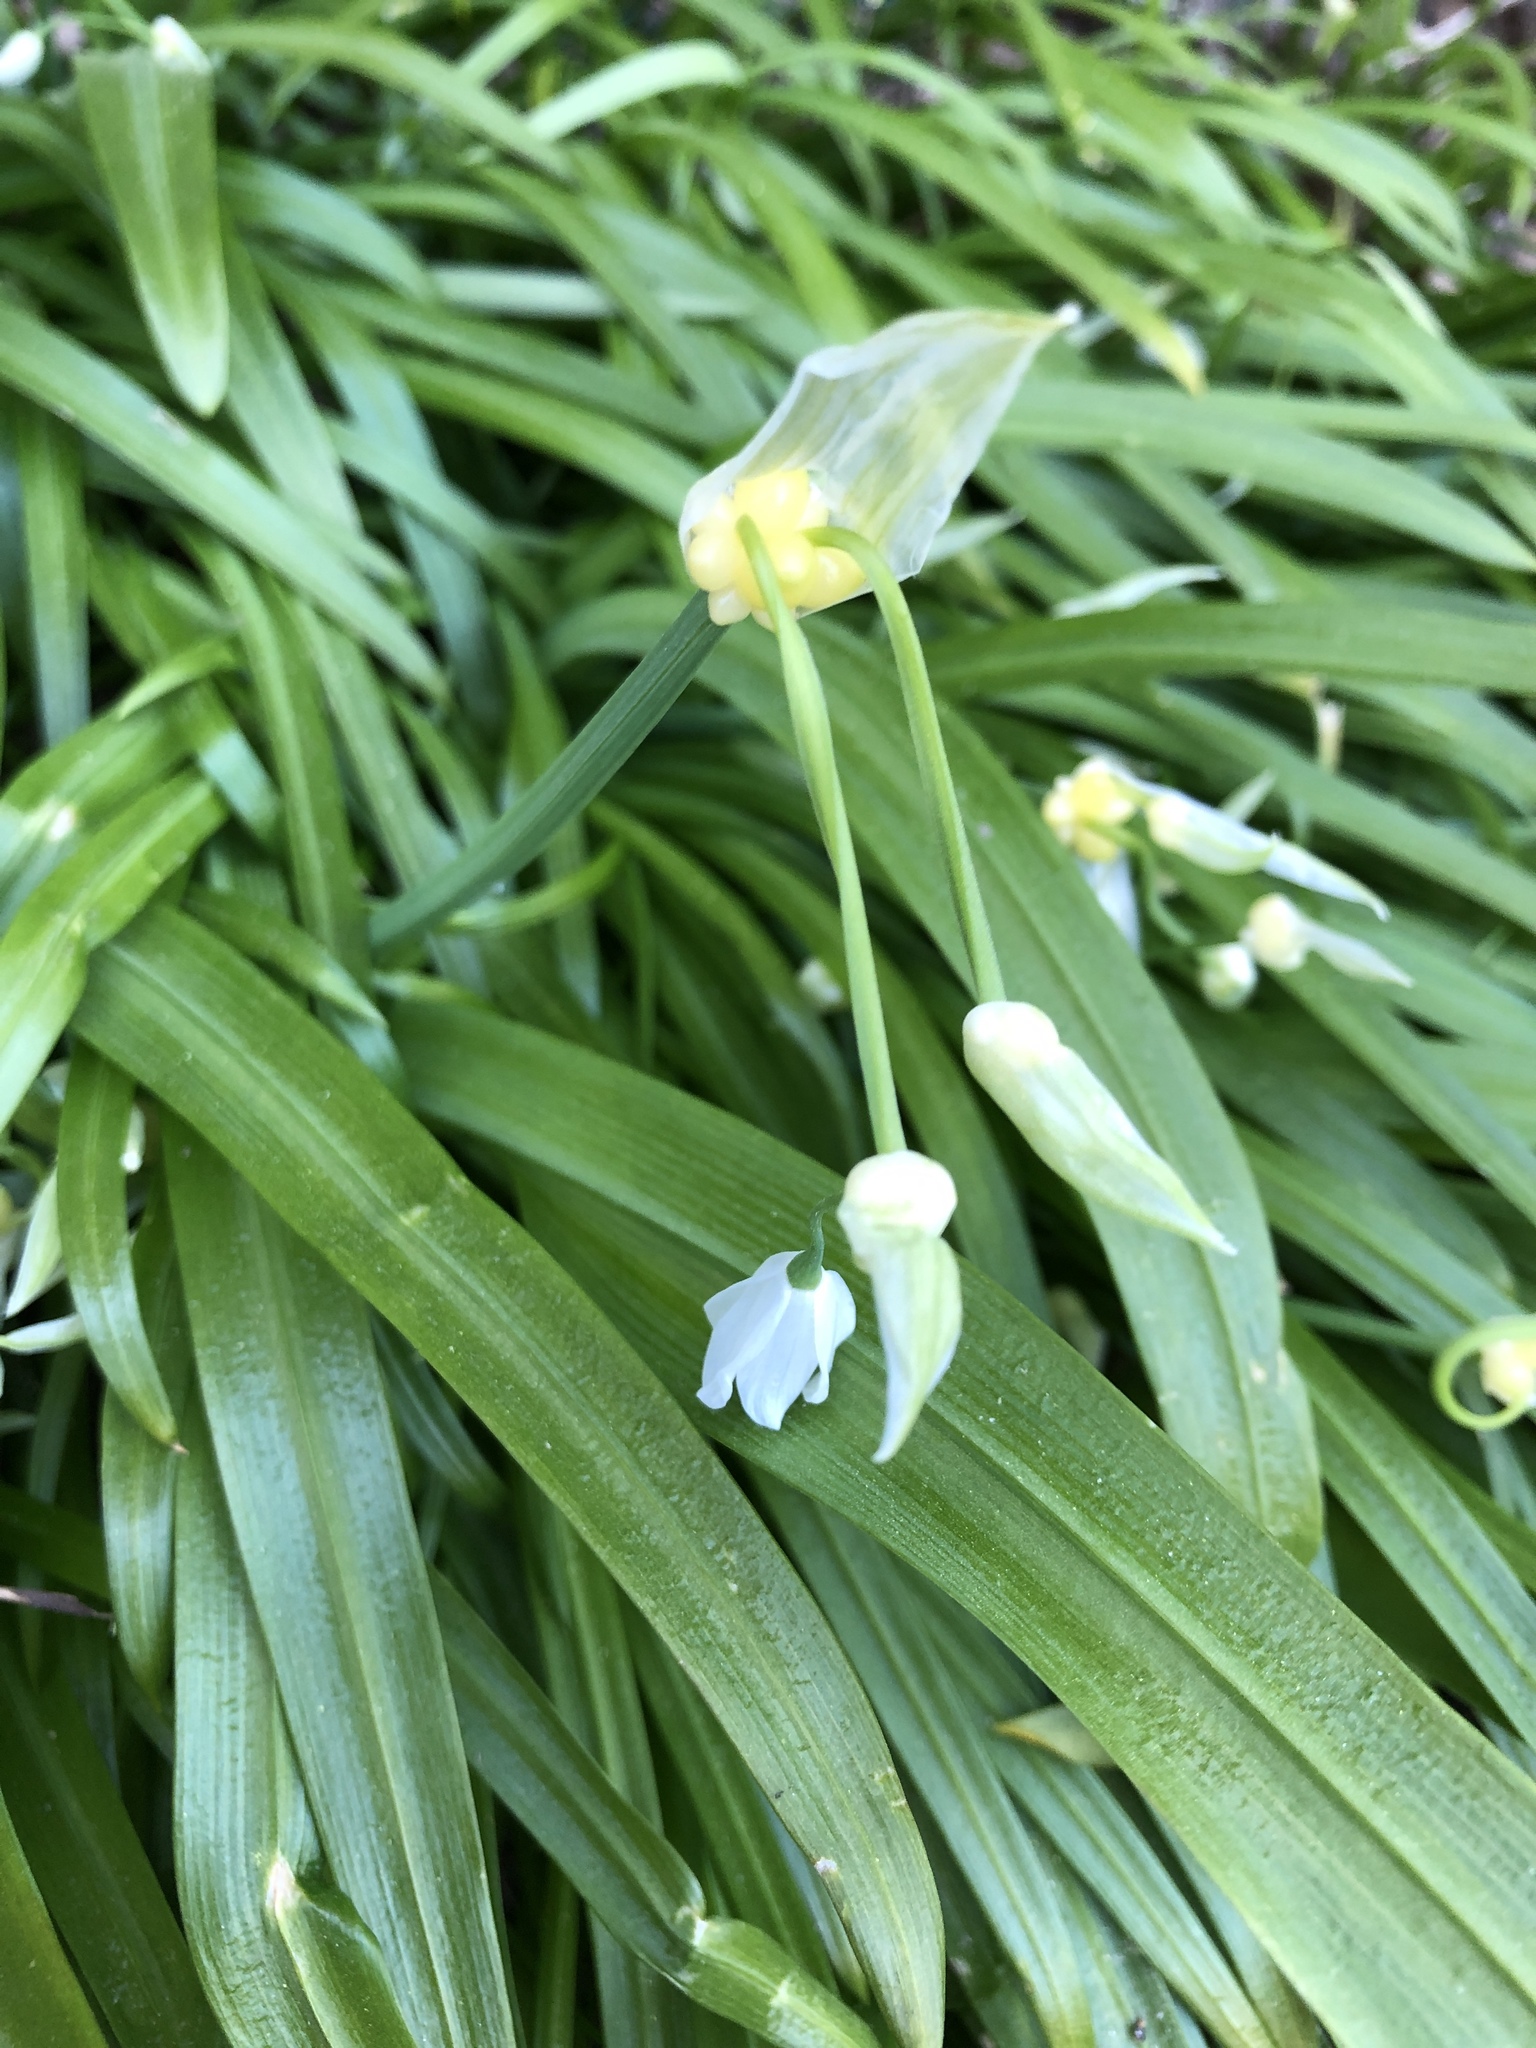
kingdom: Plantae
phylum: Tracheophyta
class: Liliopsida
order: Asparagales
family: Amaryllidaceae
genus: Allium
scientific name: Allium paradoxum
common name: Few-flowered garlic
